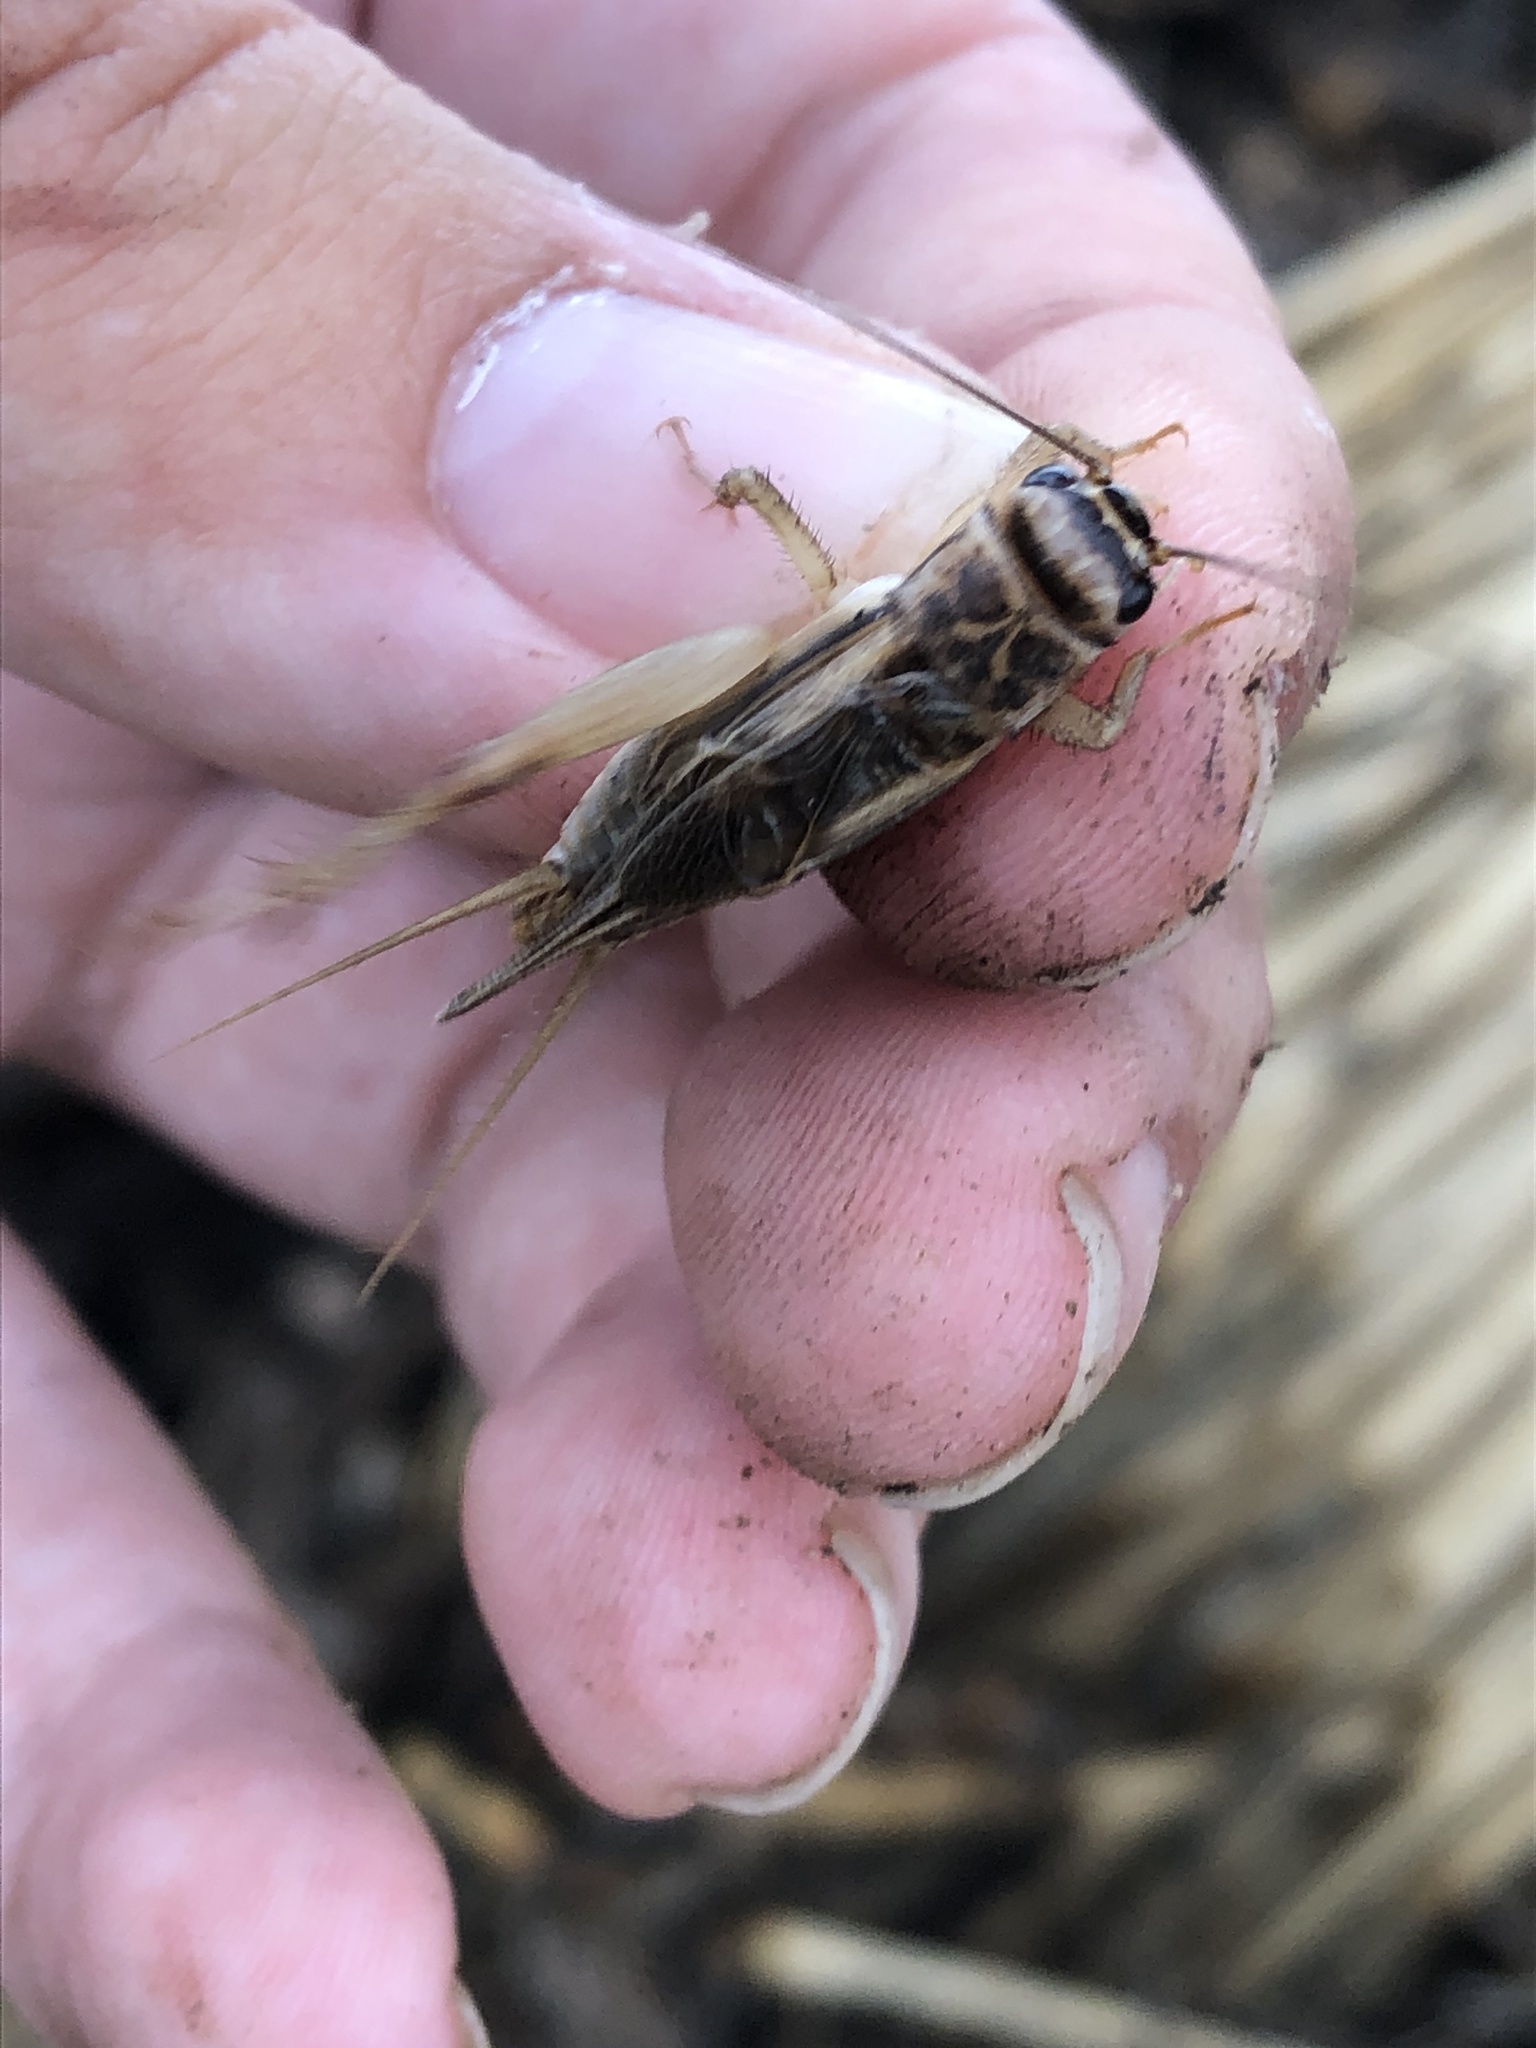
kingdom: Animalia
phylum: Arthropoda
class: Insecta
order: Orthoptera
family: Gryllidae
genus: Acheta
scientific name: Acheta domesticus
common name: House cricket
